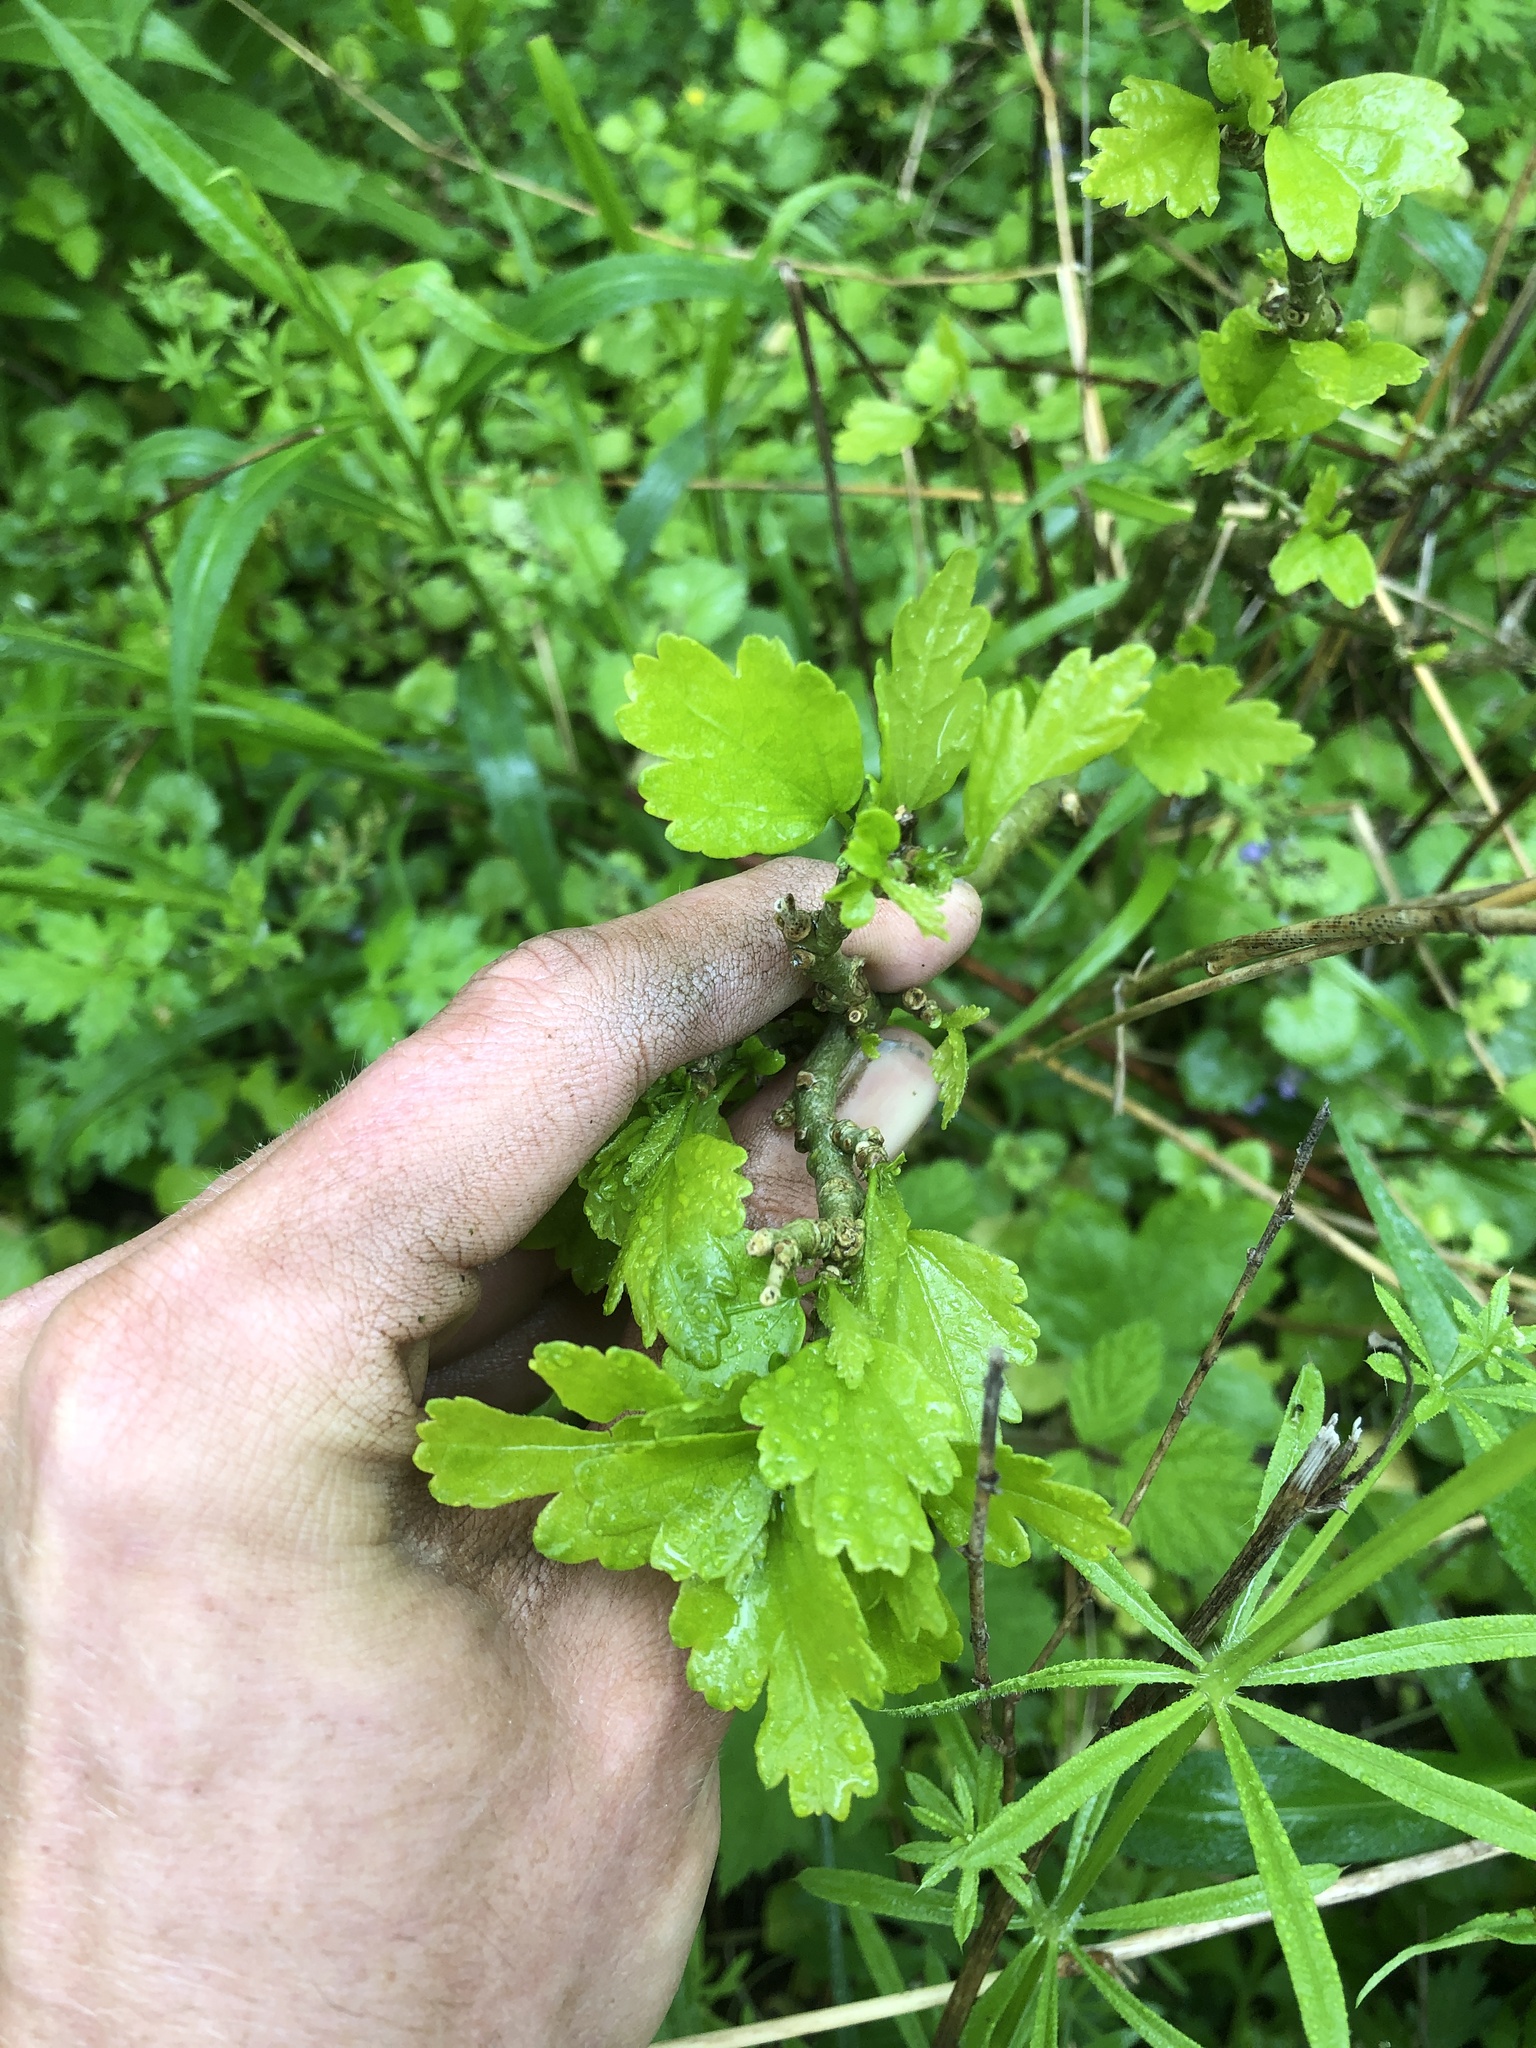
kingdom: Plantae
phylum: Tracheophyta
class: Magnoliopsida
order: Malvales
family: Malvaceae
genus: Hibiscus
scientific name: Hibiscus syriacus
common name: Syrian ketmia
